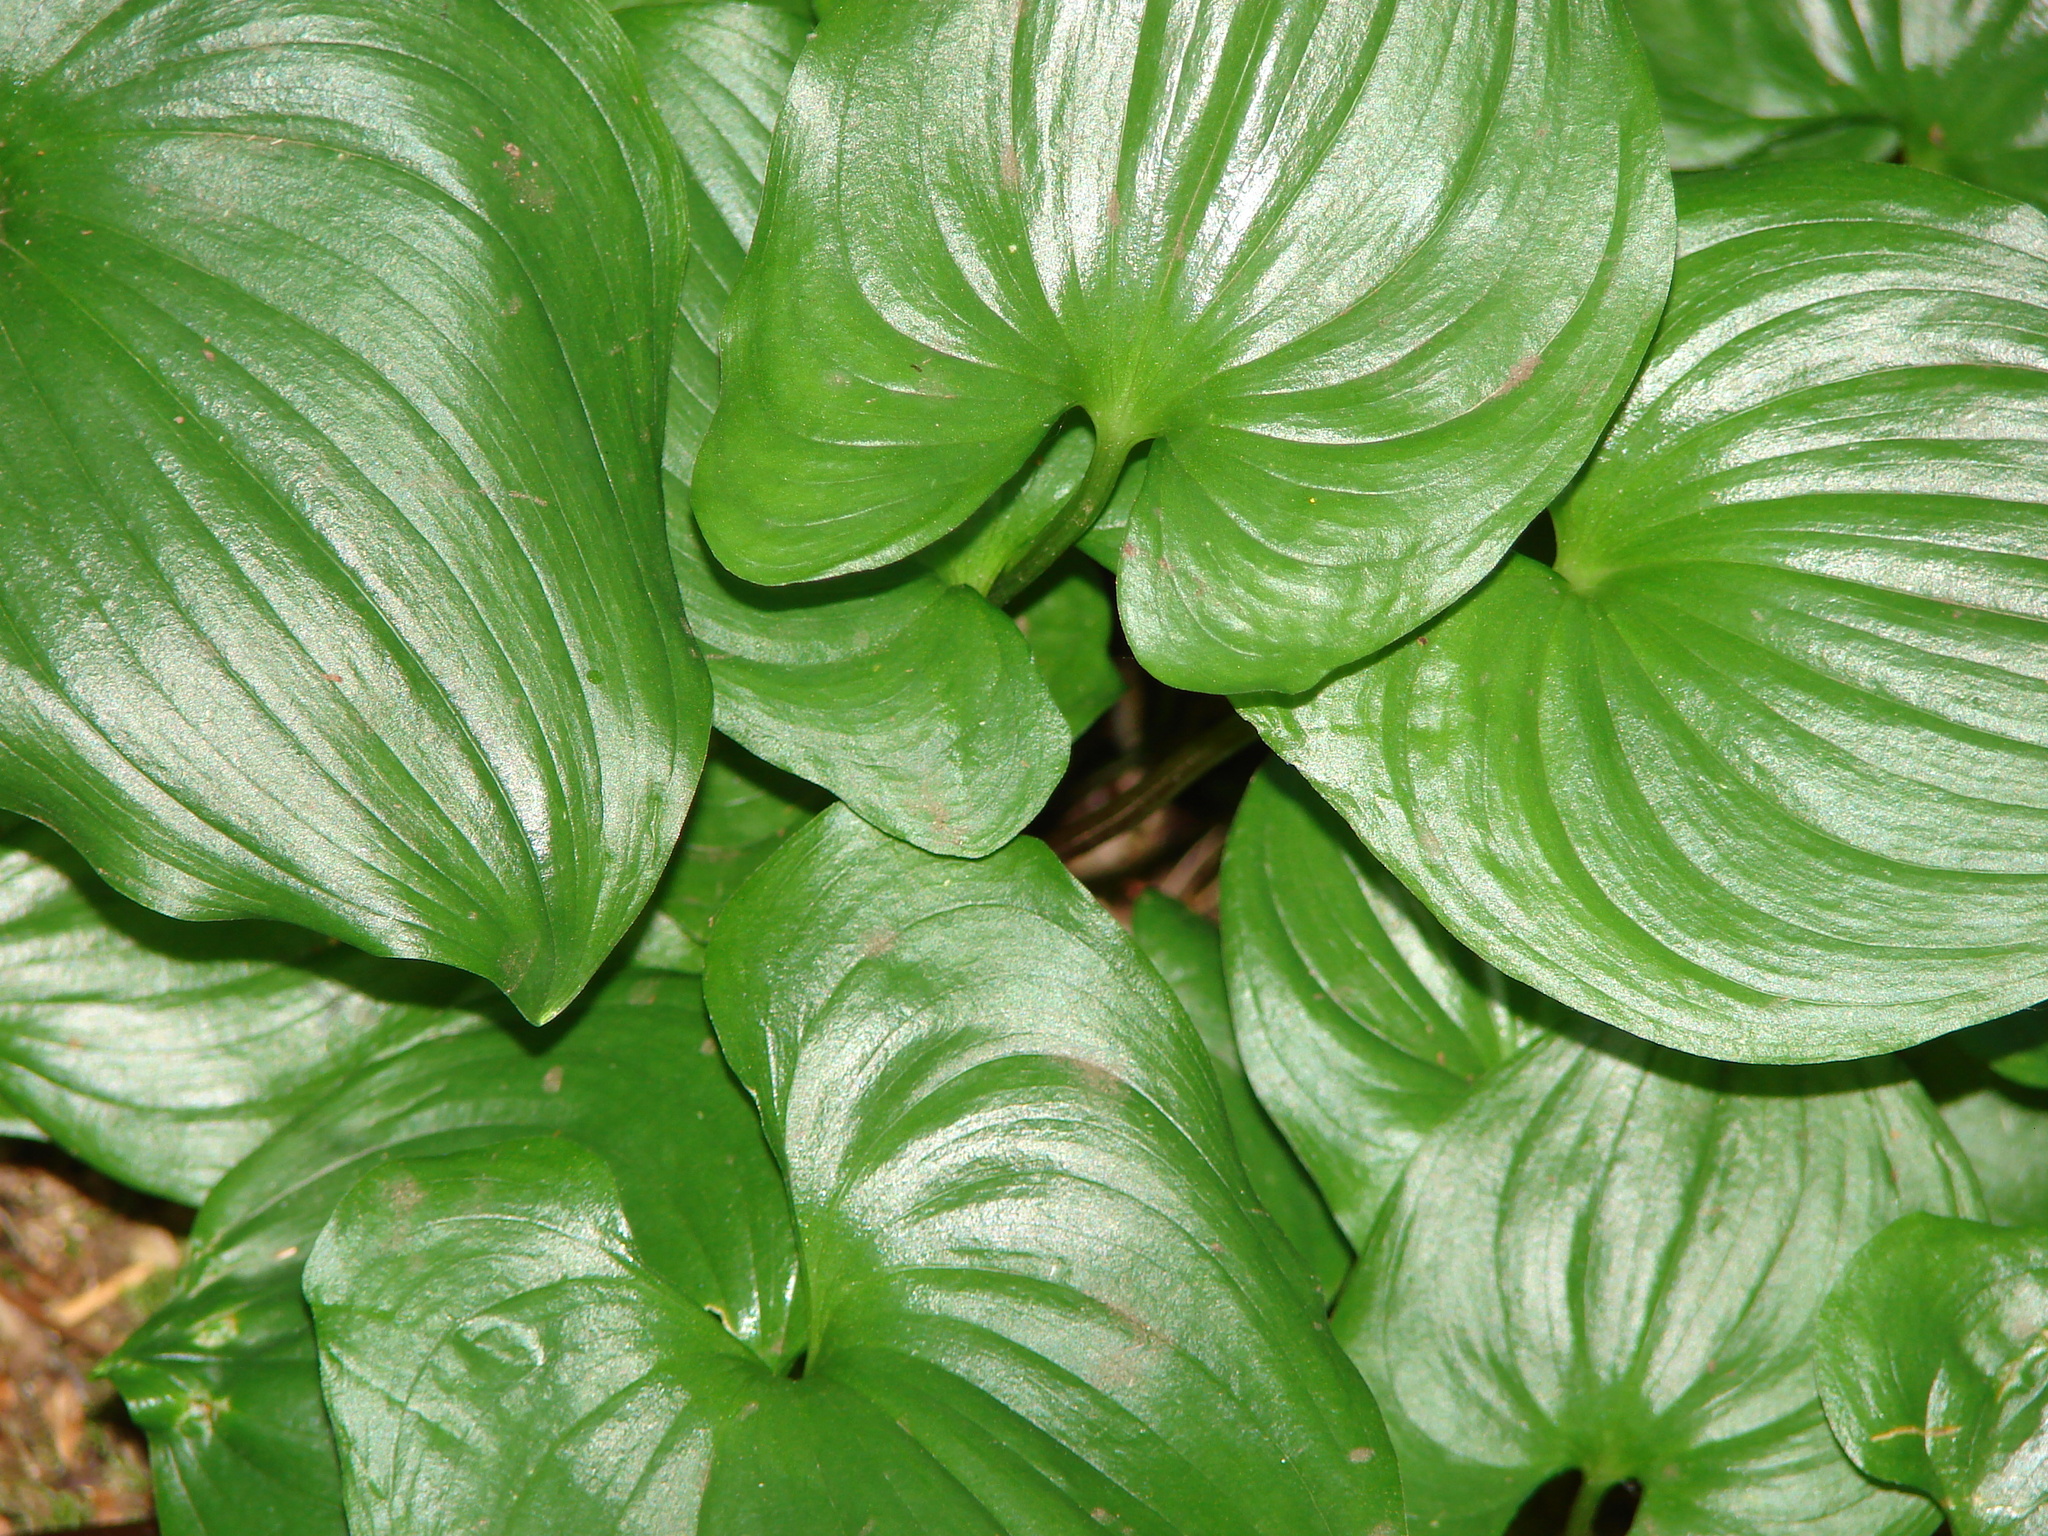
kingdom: Plantae
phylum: Tracheophyta
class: Liliopsida
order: Asparagales
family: Asparagaceae
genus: Maianthemum
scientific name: Maianthemum dilatatum
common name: False lily-of-the-valley
